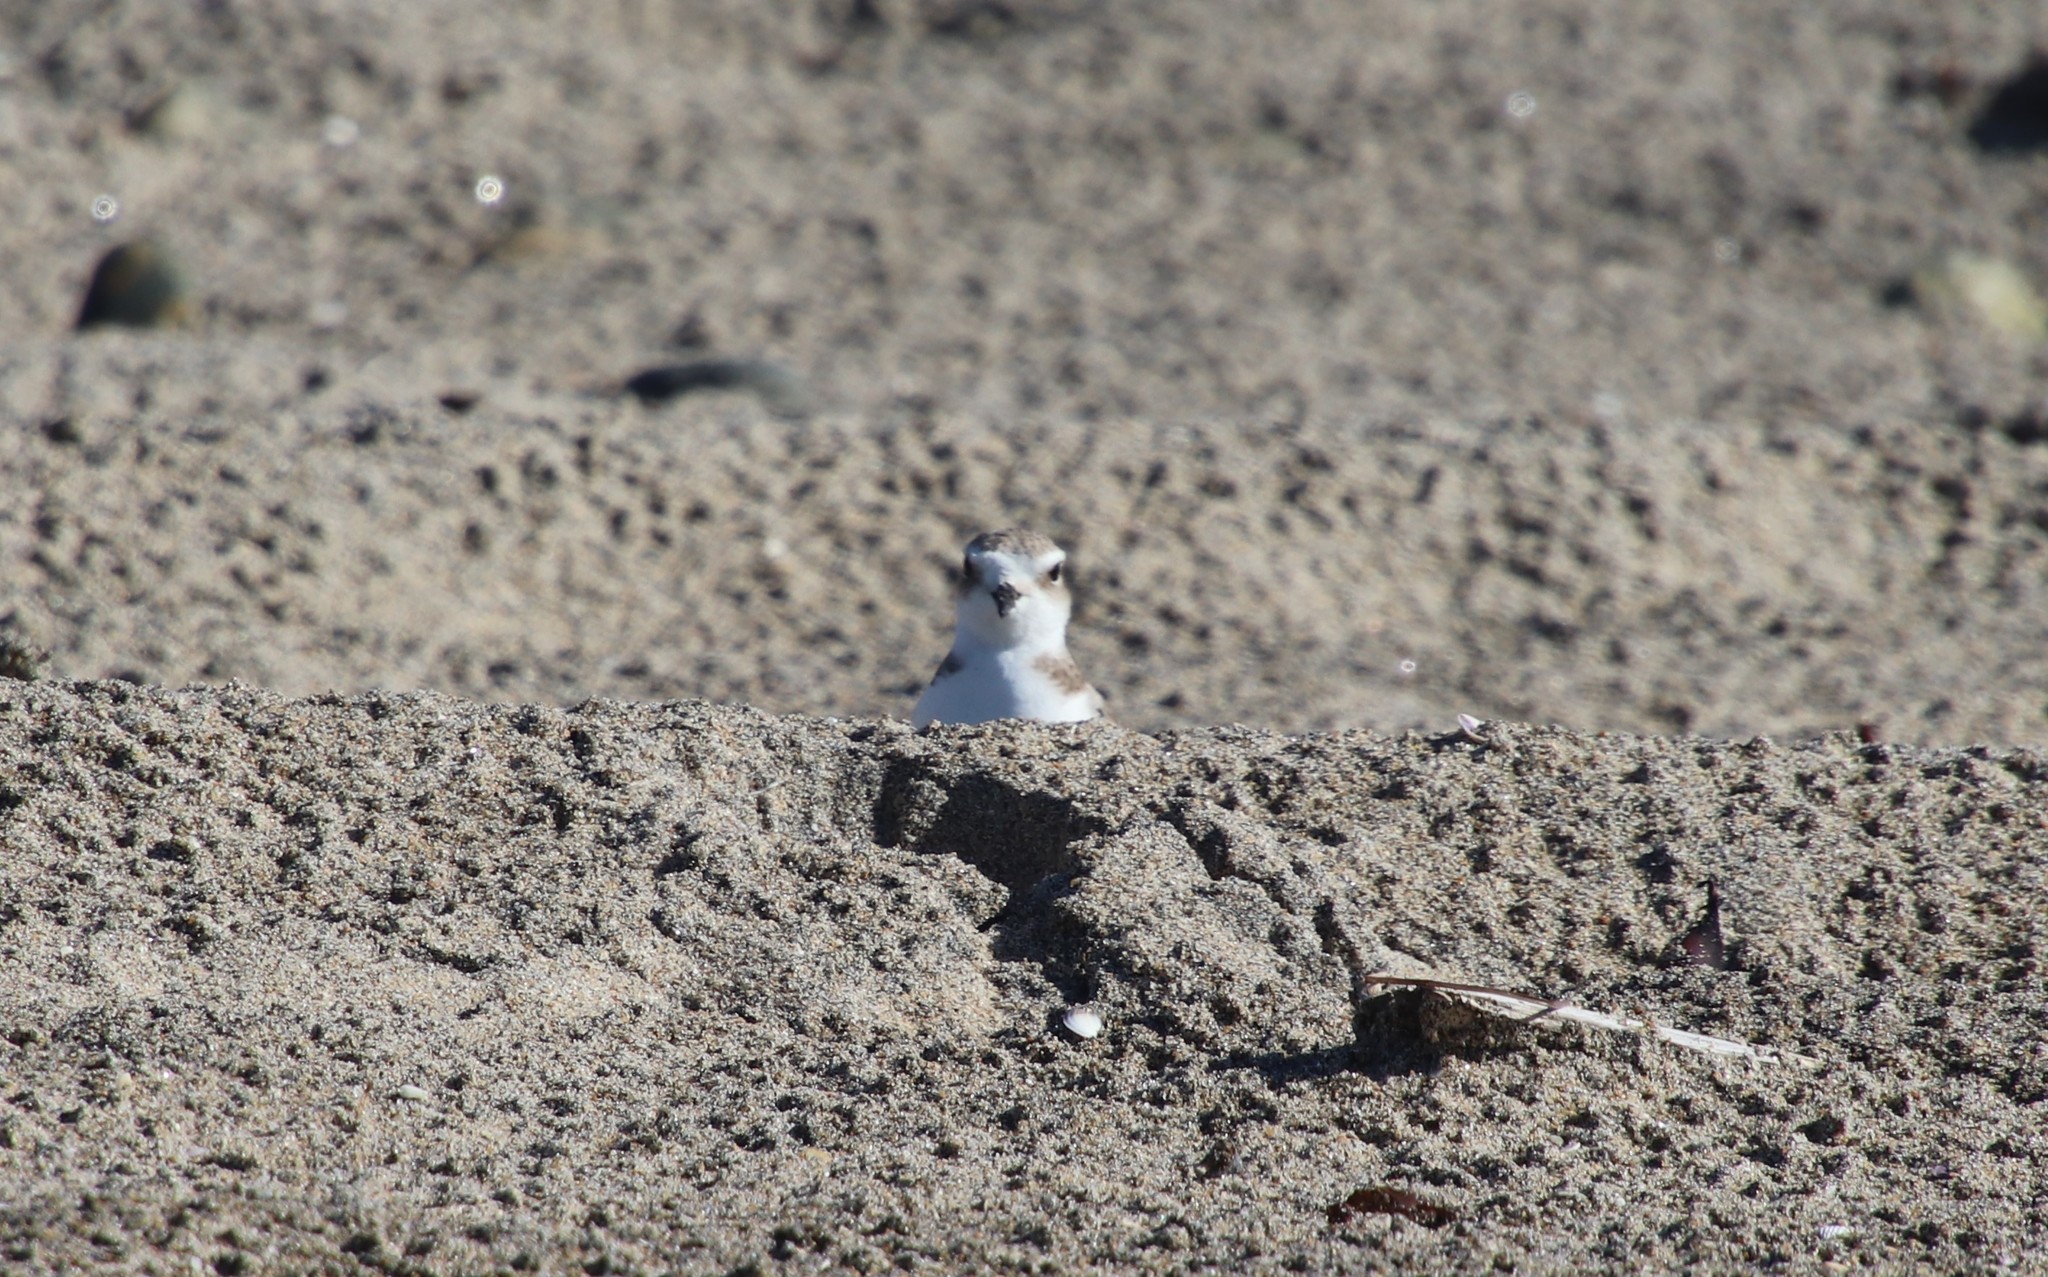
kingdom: Animalia
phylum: Chordata
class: Aves
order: Charadriiformes
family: Charadriidae
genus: Anarhynchus
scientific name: Anarhynchus
